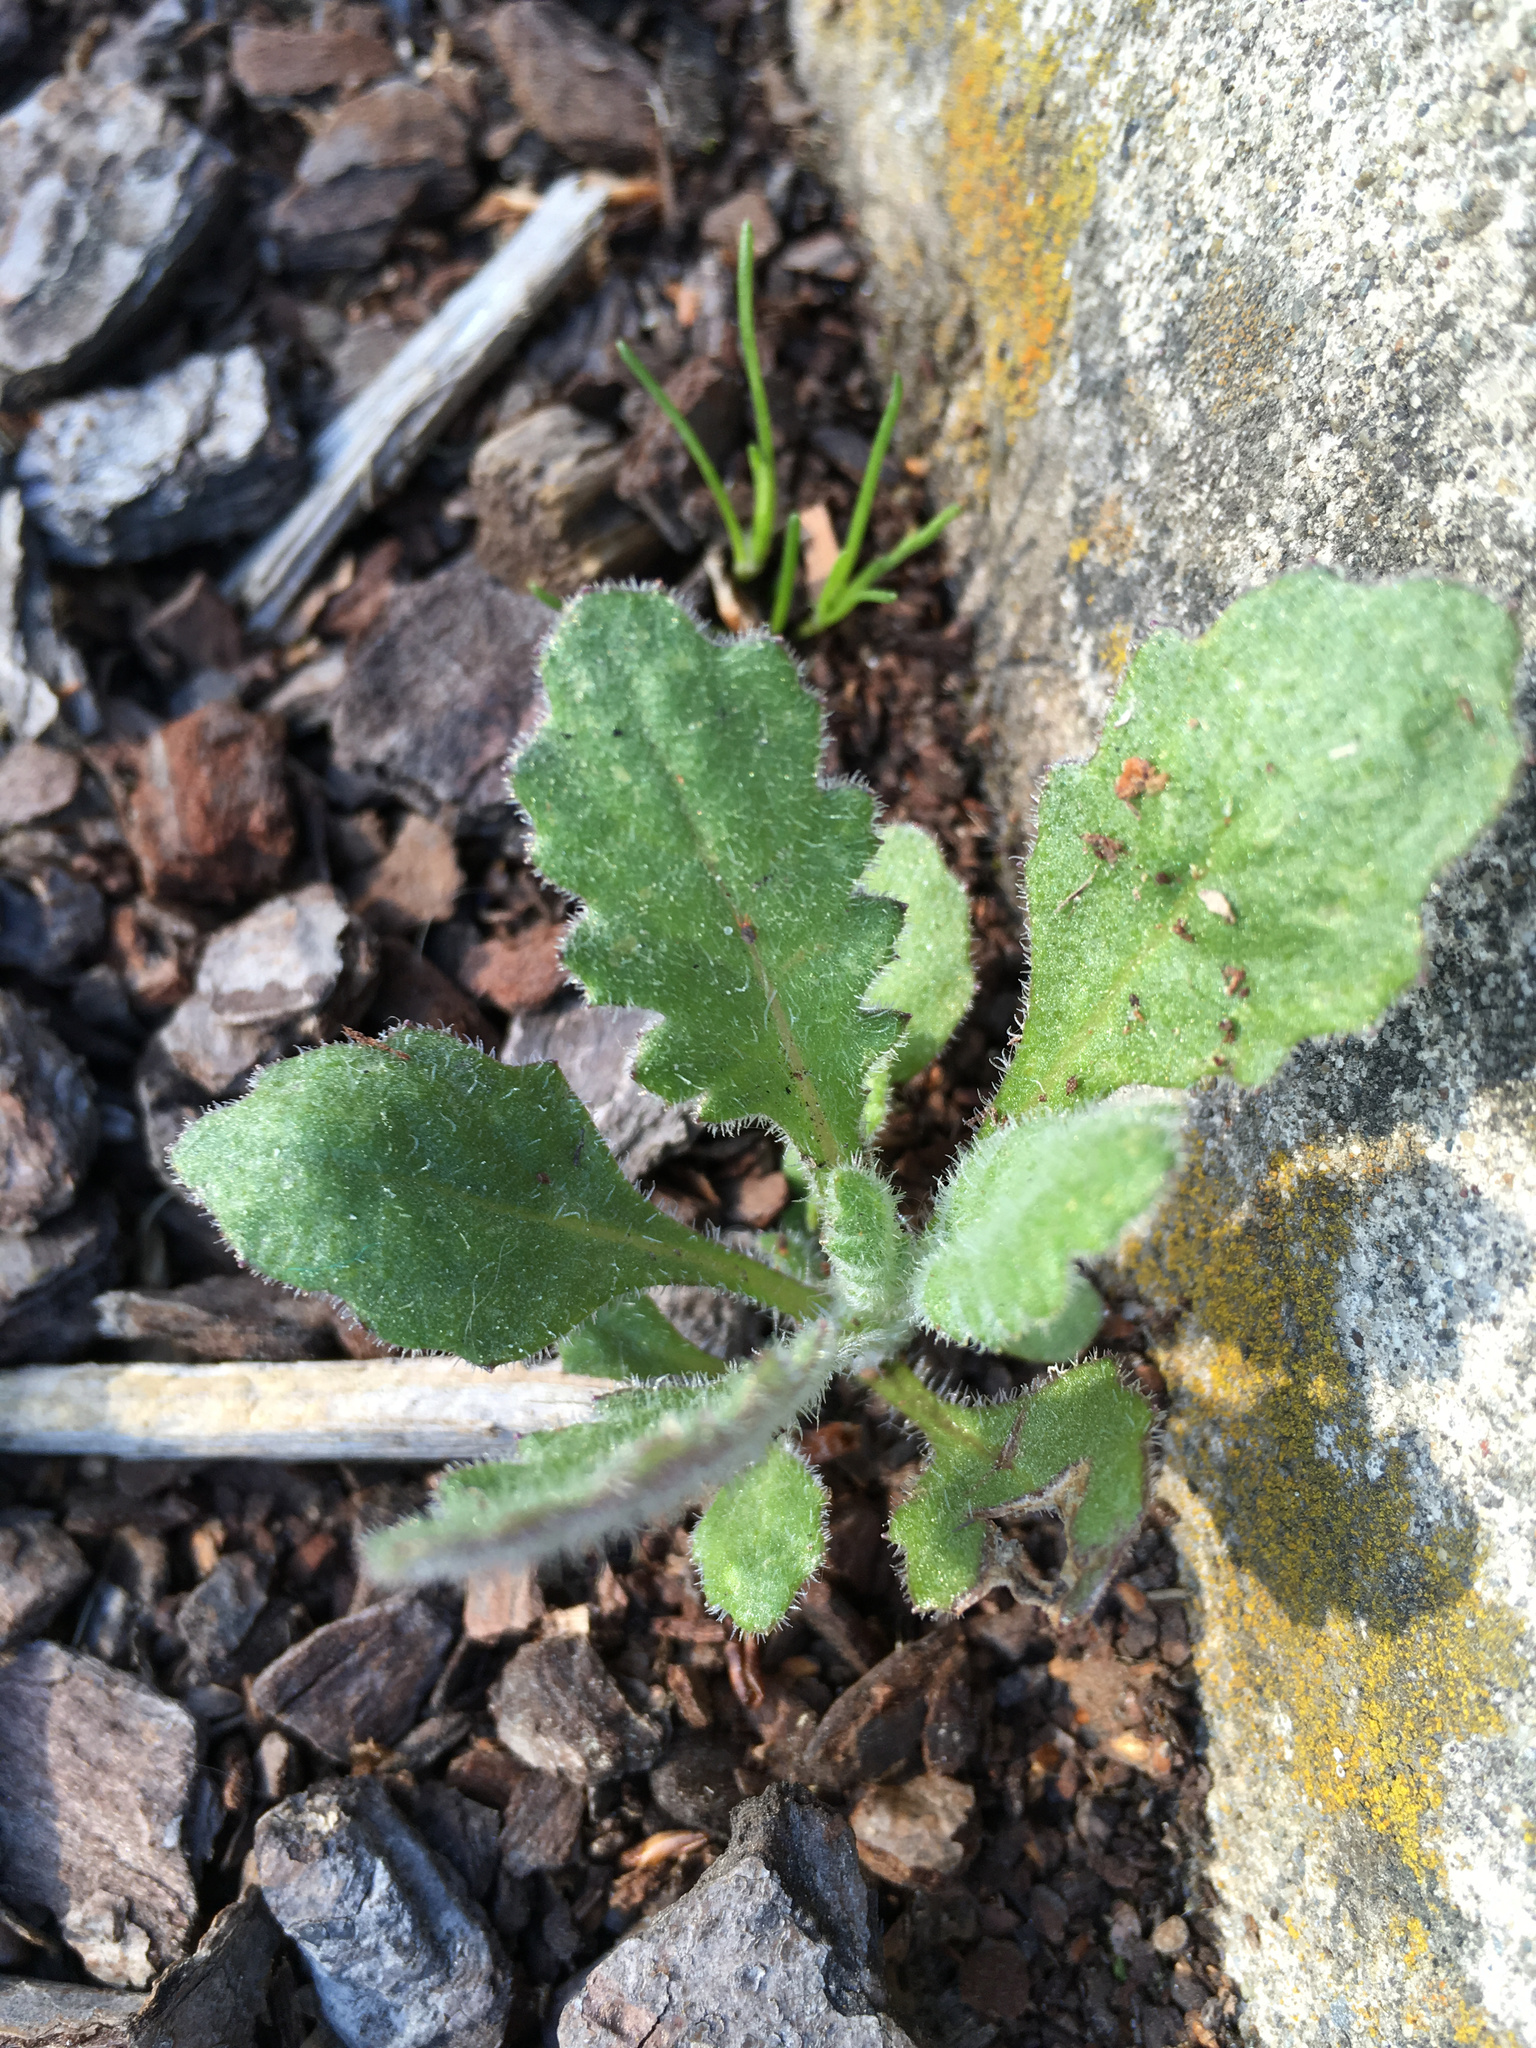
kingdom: Plantae
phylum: Tracheophyta
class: Magnoliopsida
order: Asterales
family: Asteraceae
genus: Senecio
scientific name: Senecio glomeratus
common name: Cutleaf burnweed
